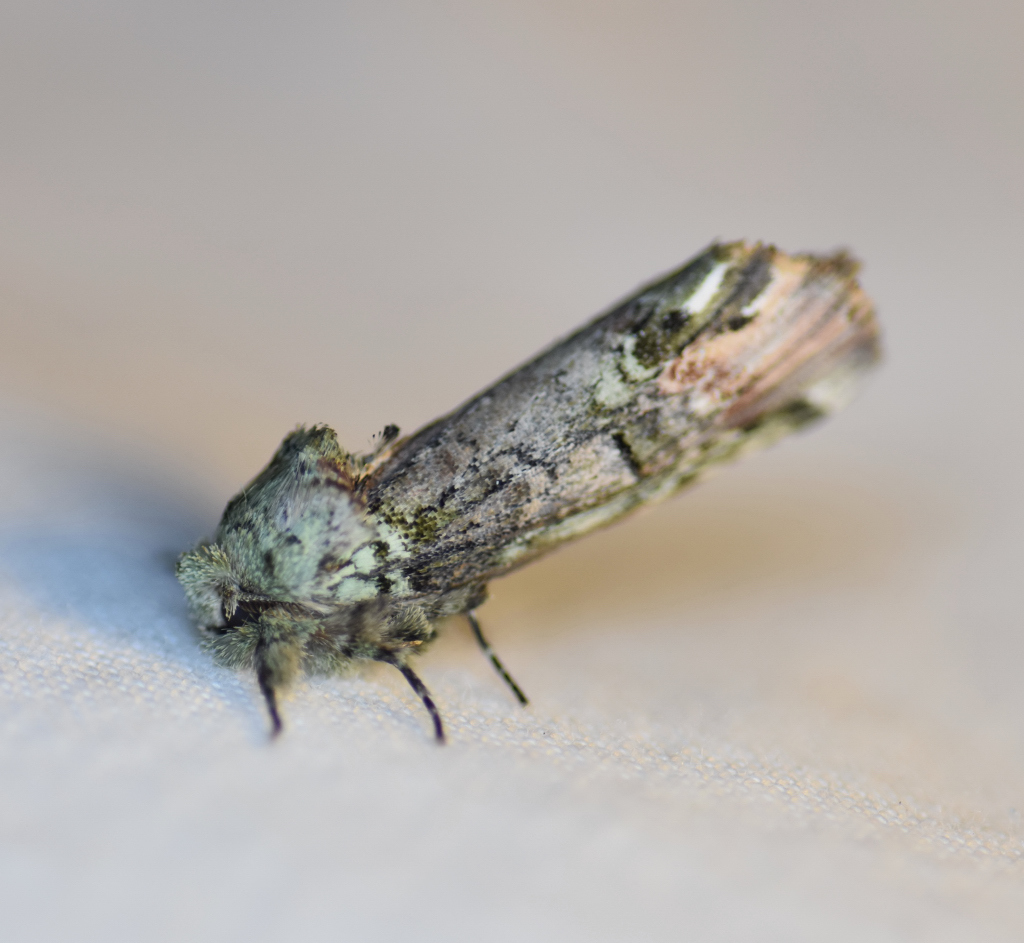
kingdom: Animalia
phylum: Arthropoda
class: Insecta
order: Lepidoptera
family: Notodontidae
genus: Schizura
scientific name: Schizura
